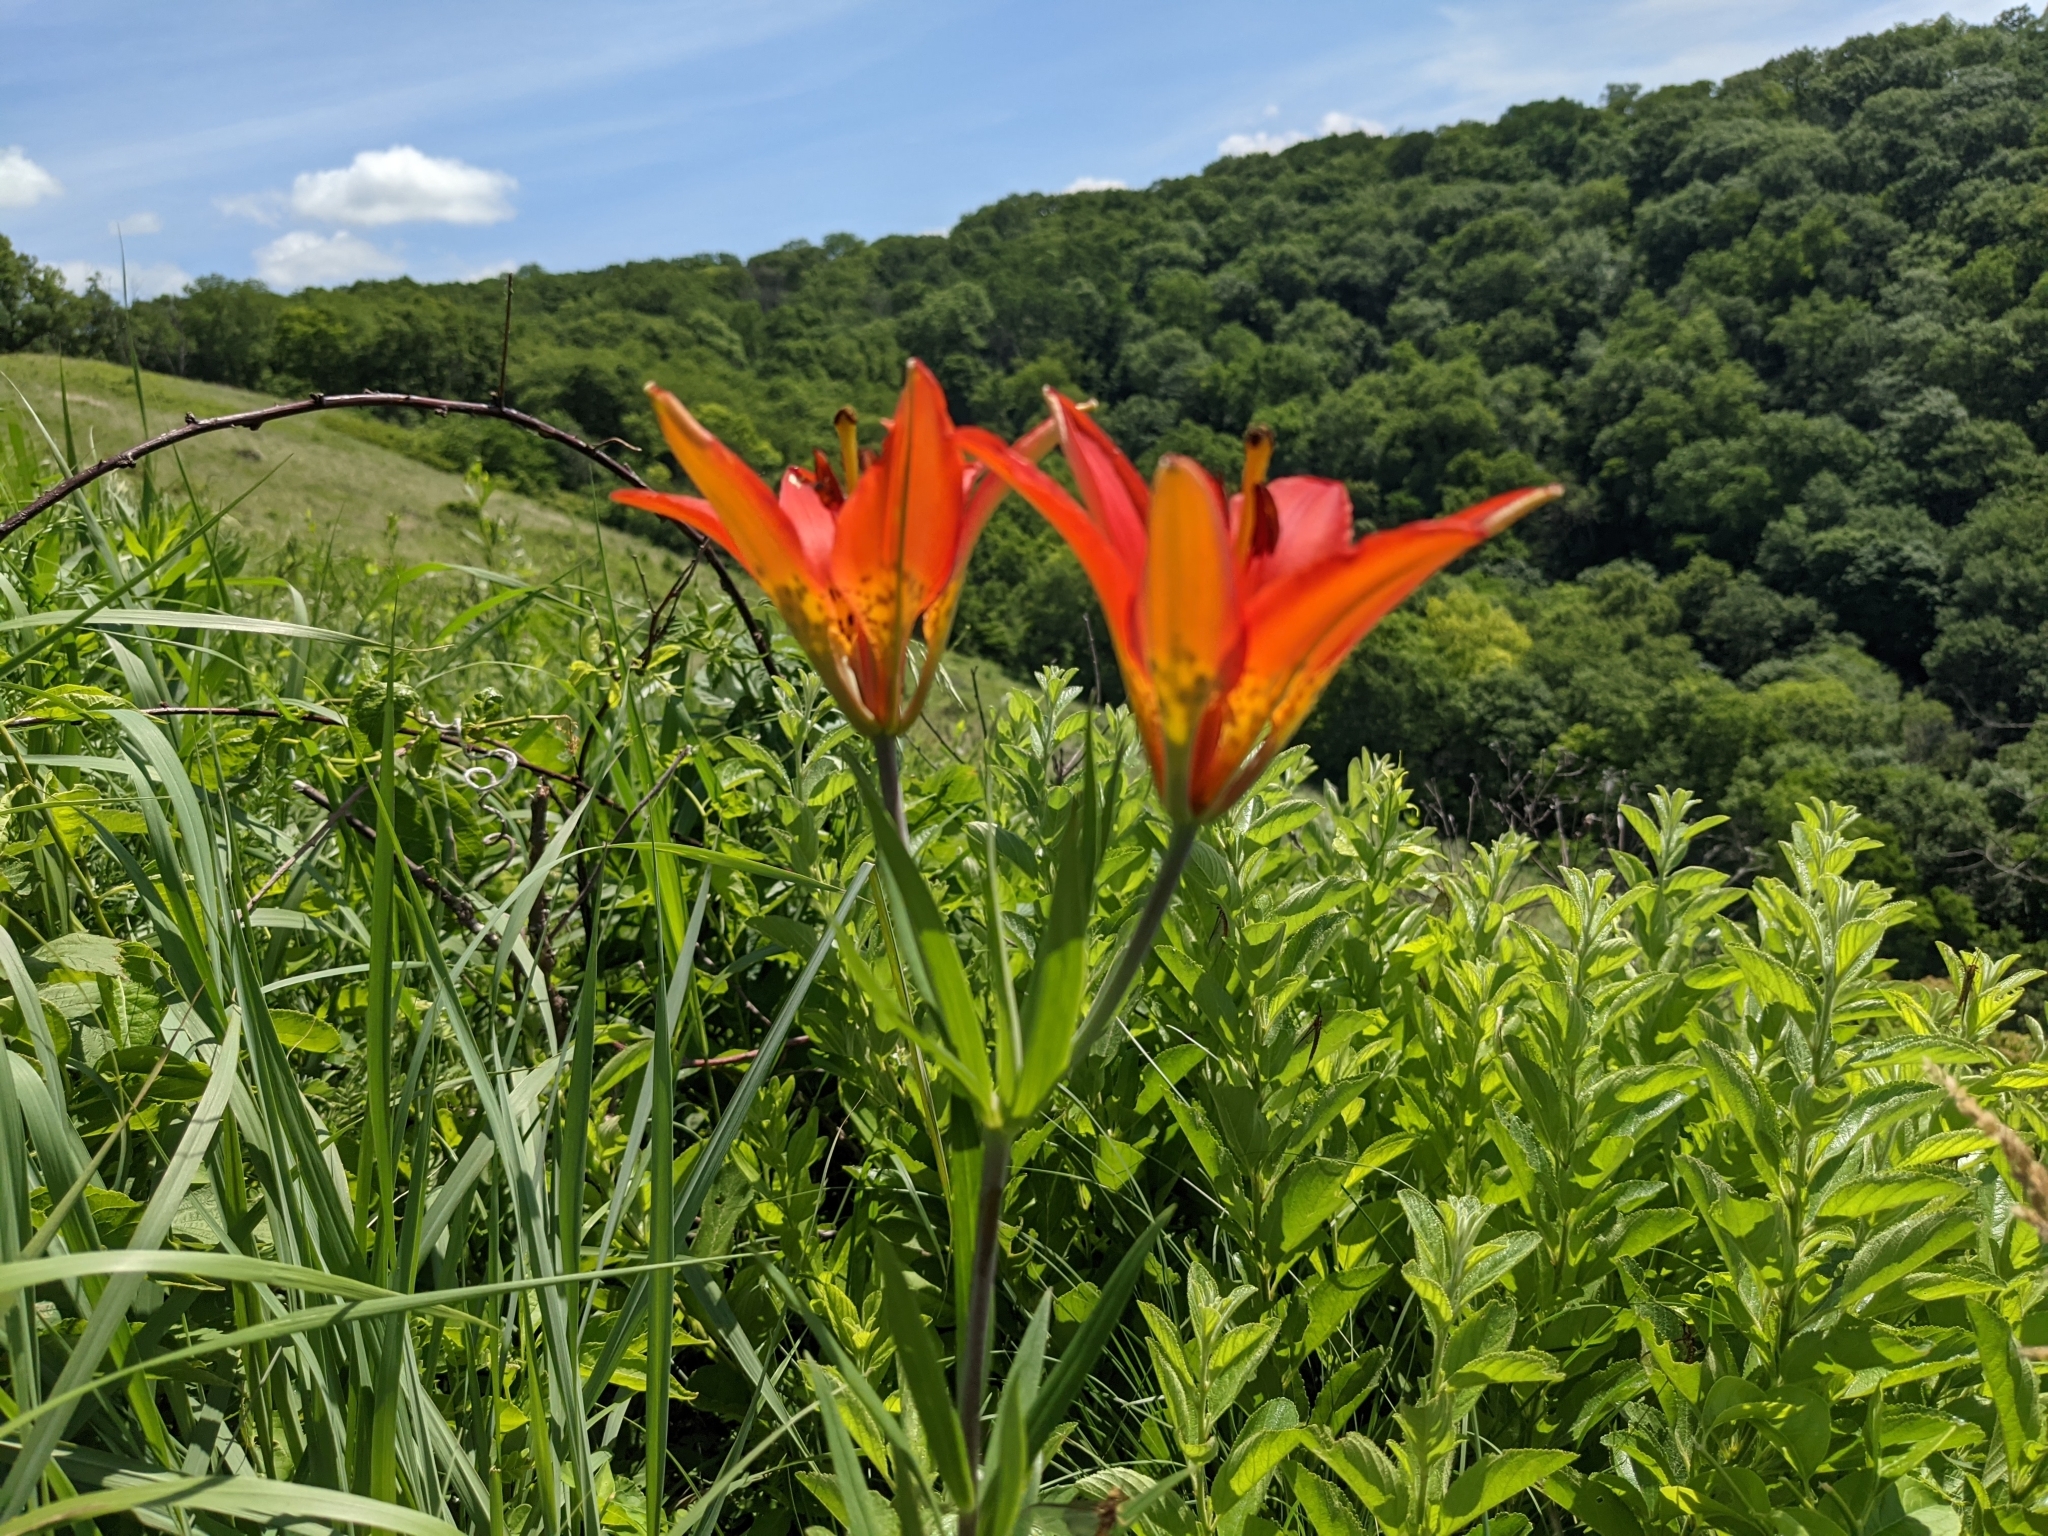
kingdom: Plantae
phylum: Tracheophyta
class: Liliopsida
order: Liliales
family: Liliaceae
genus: Lilium
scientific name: Lilium philadelphicum
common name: Red lily
